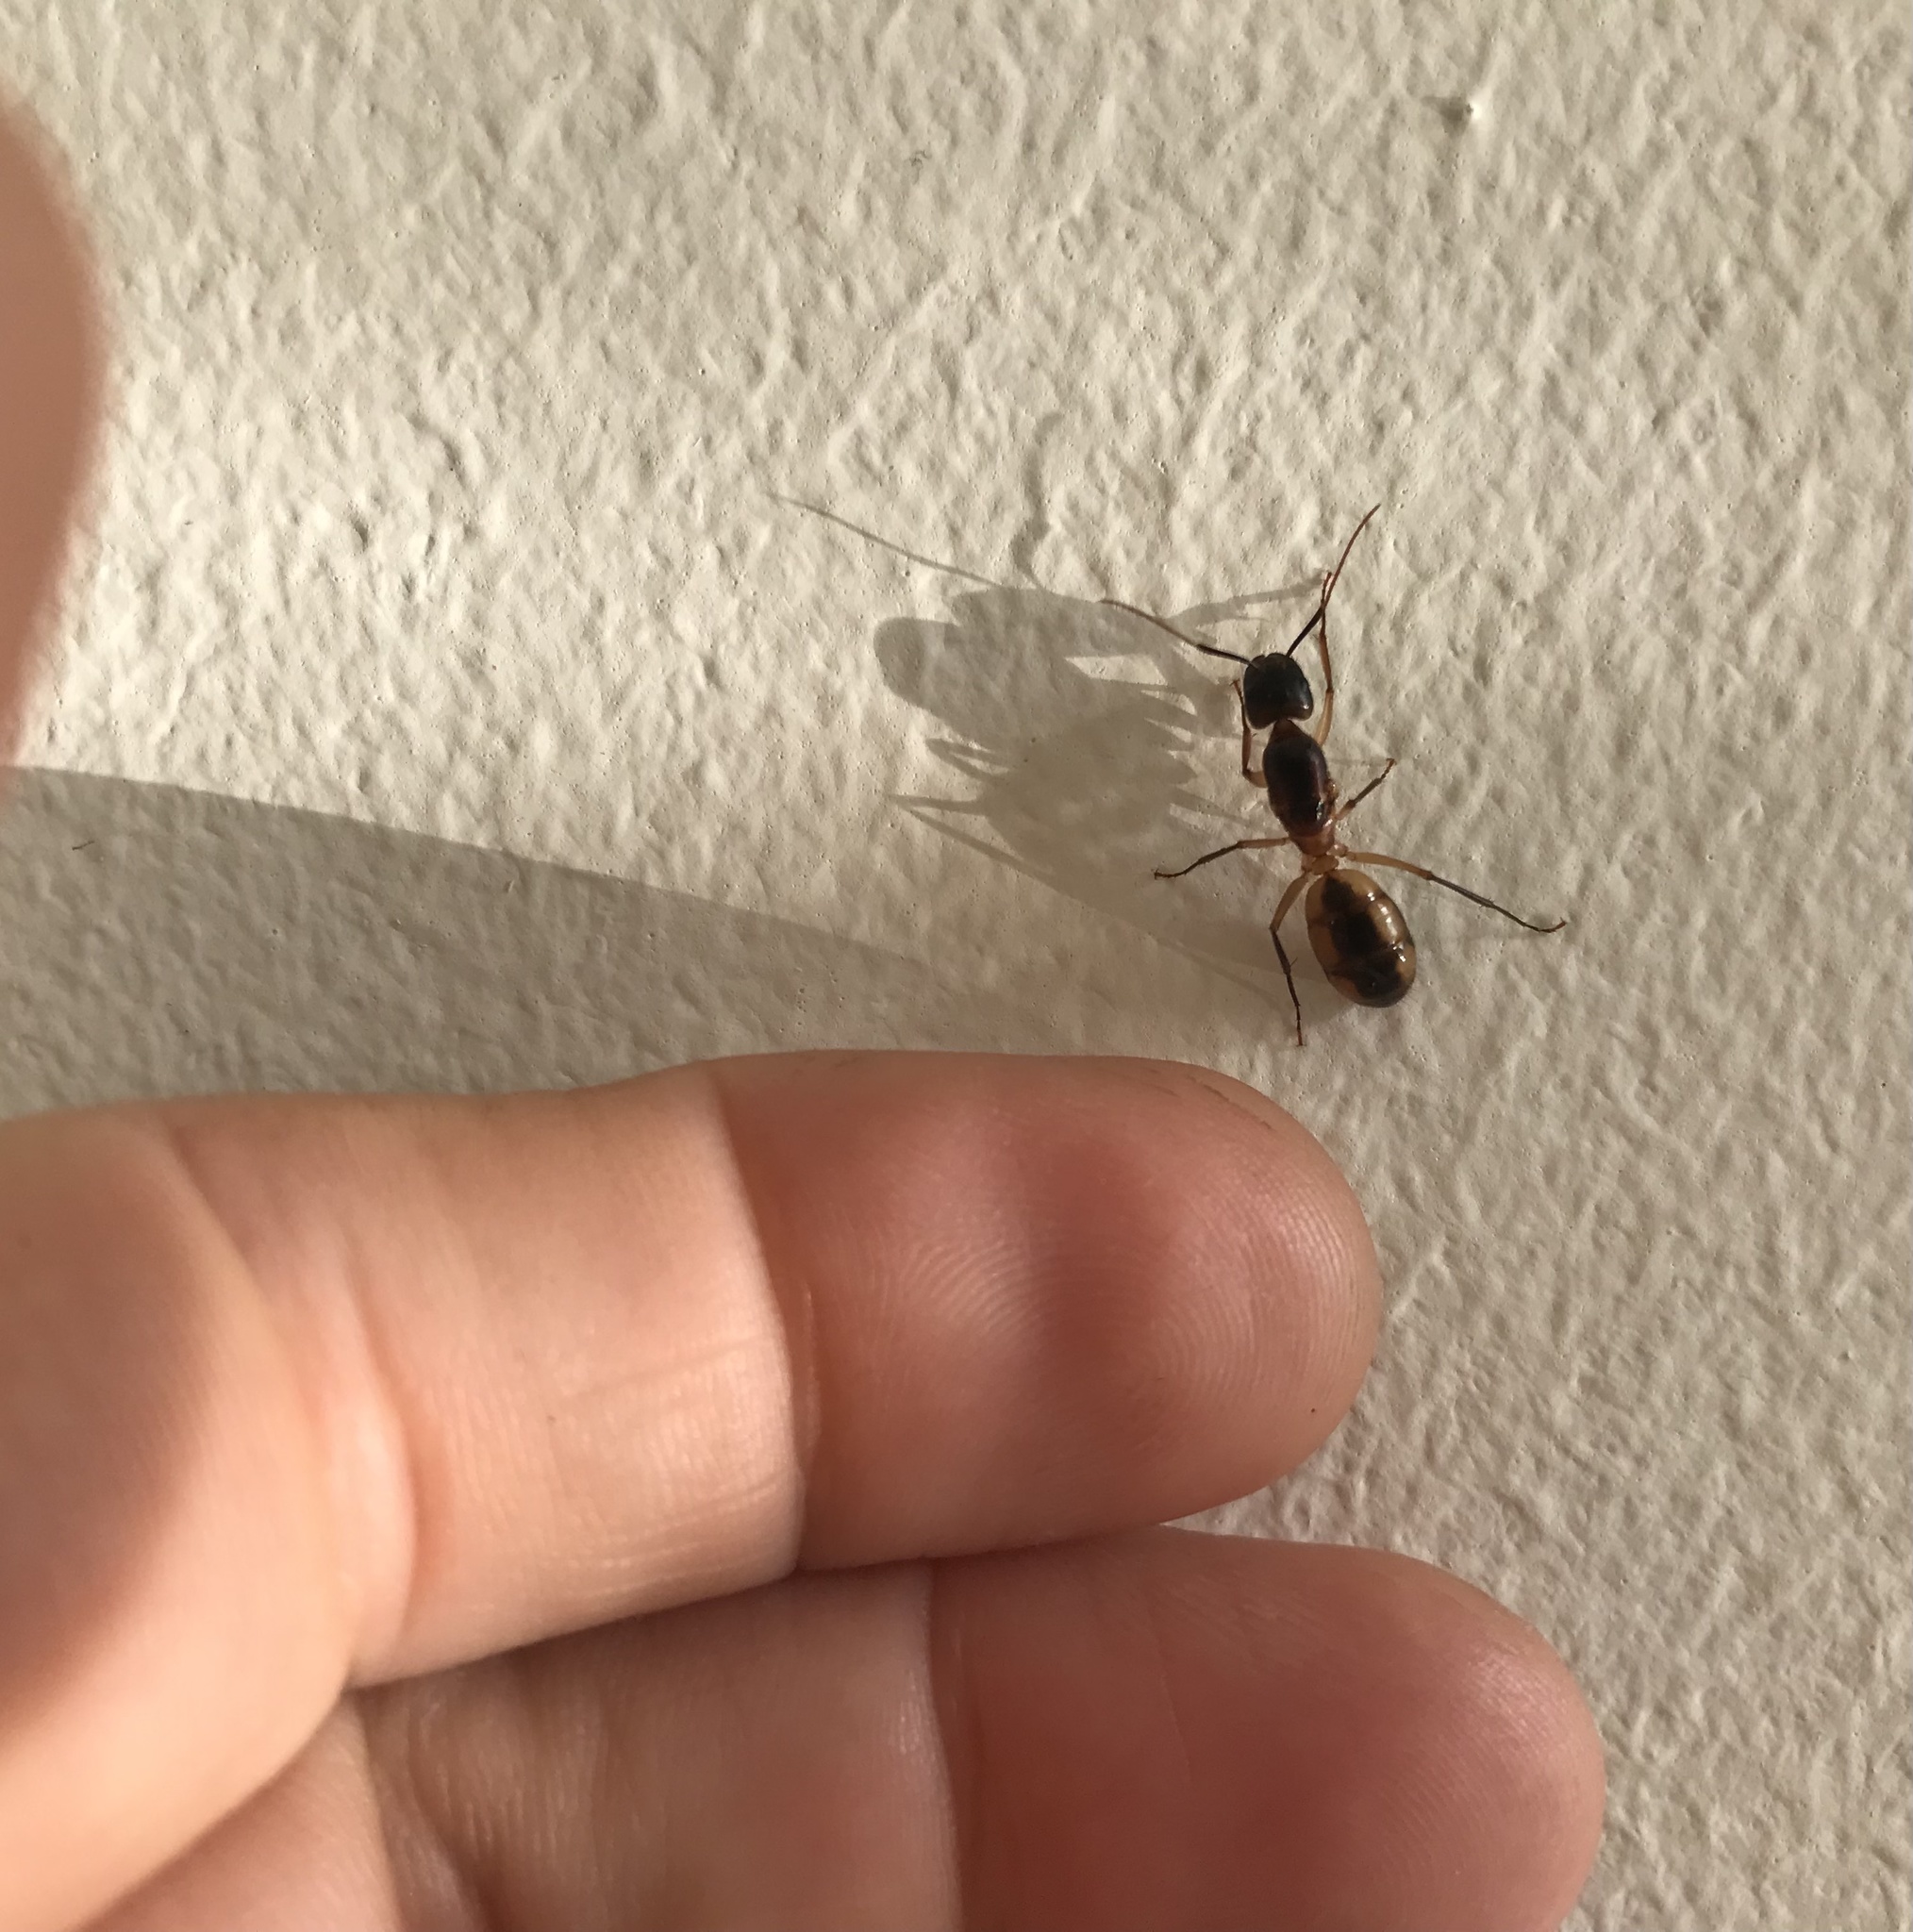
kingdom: Animalia
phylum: Arthropoda
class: Insecta
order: Hymenoptera
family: Formicidae
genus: Camponotus
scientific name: Camponotus maculatus
